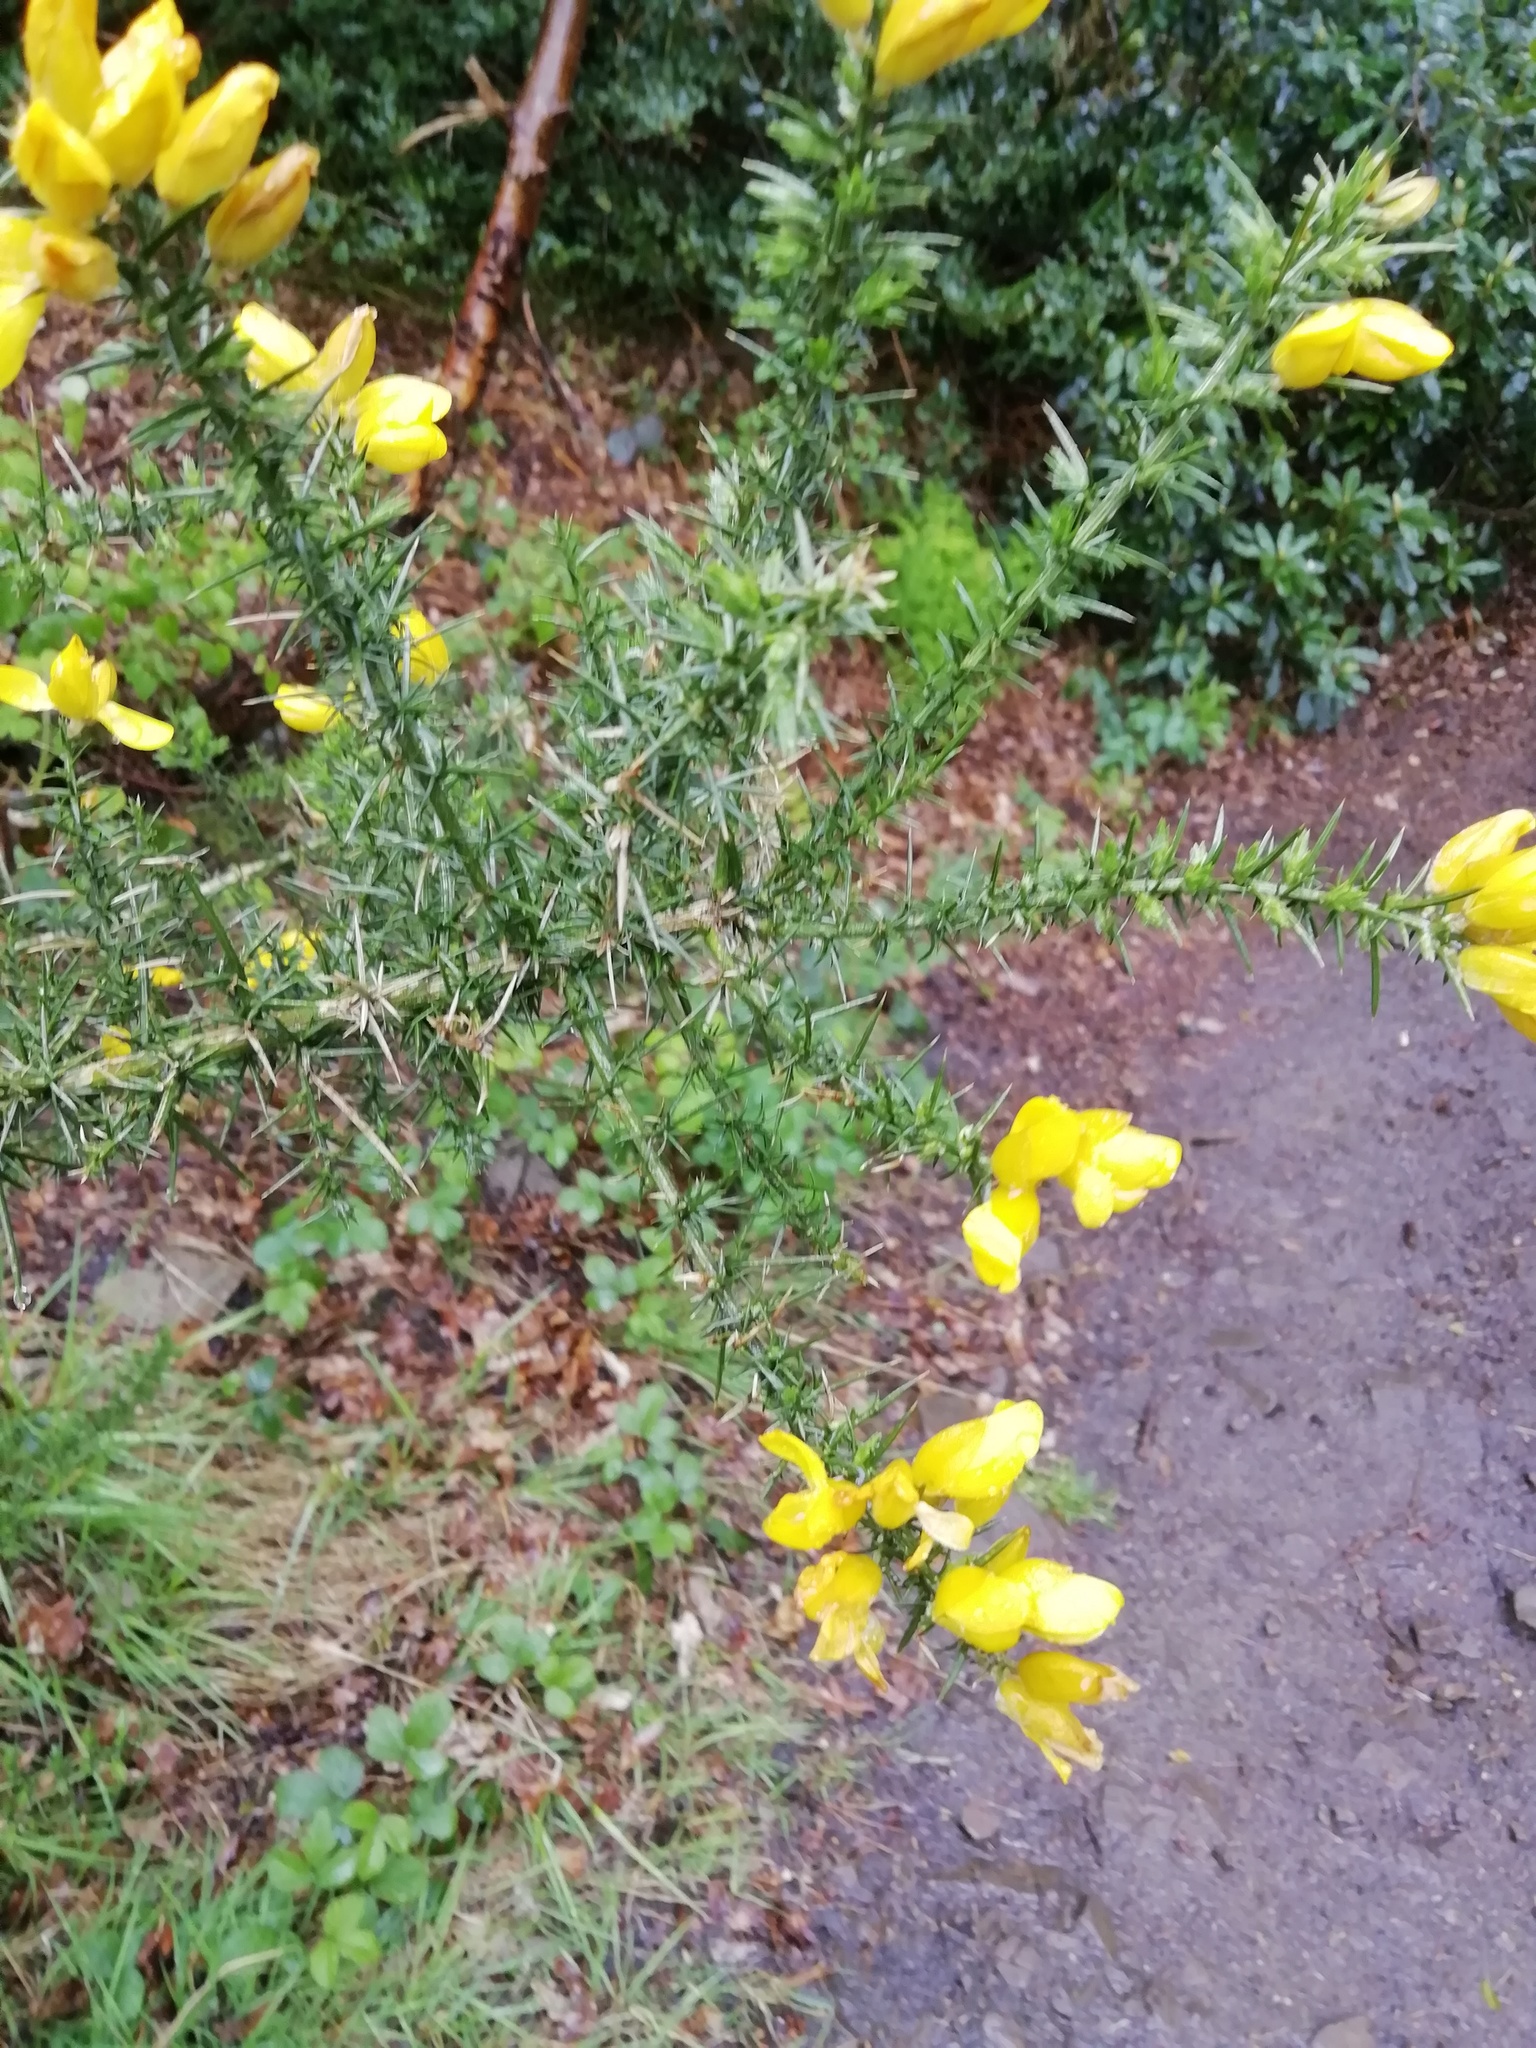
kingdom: Plantae
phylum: Tracheophyta
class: Magnoliopsida
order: Fabales
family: Fabaceae
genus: Ulex
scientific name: Ulex europaeus
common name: Common gorse
